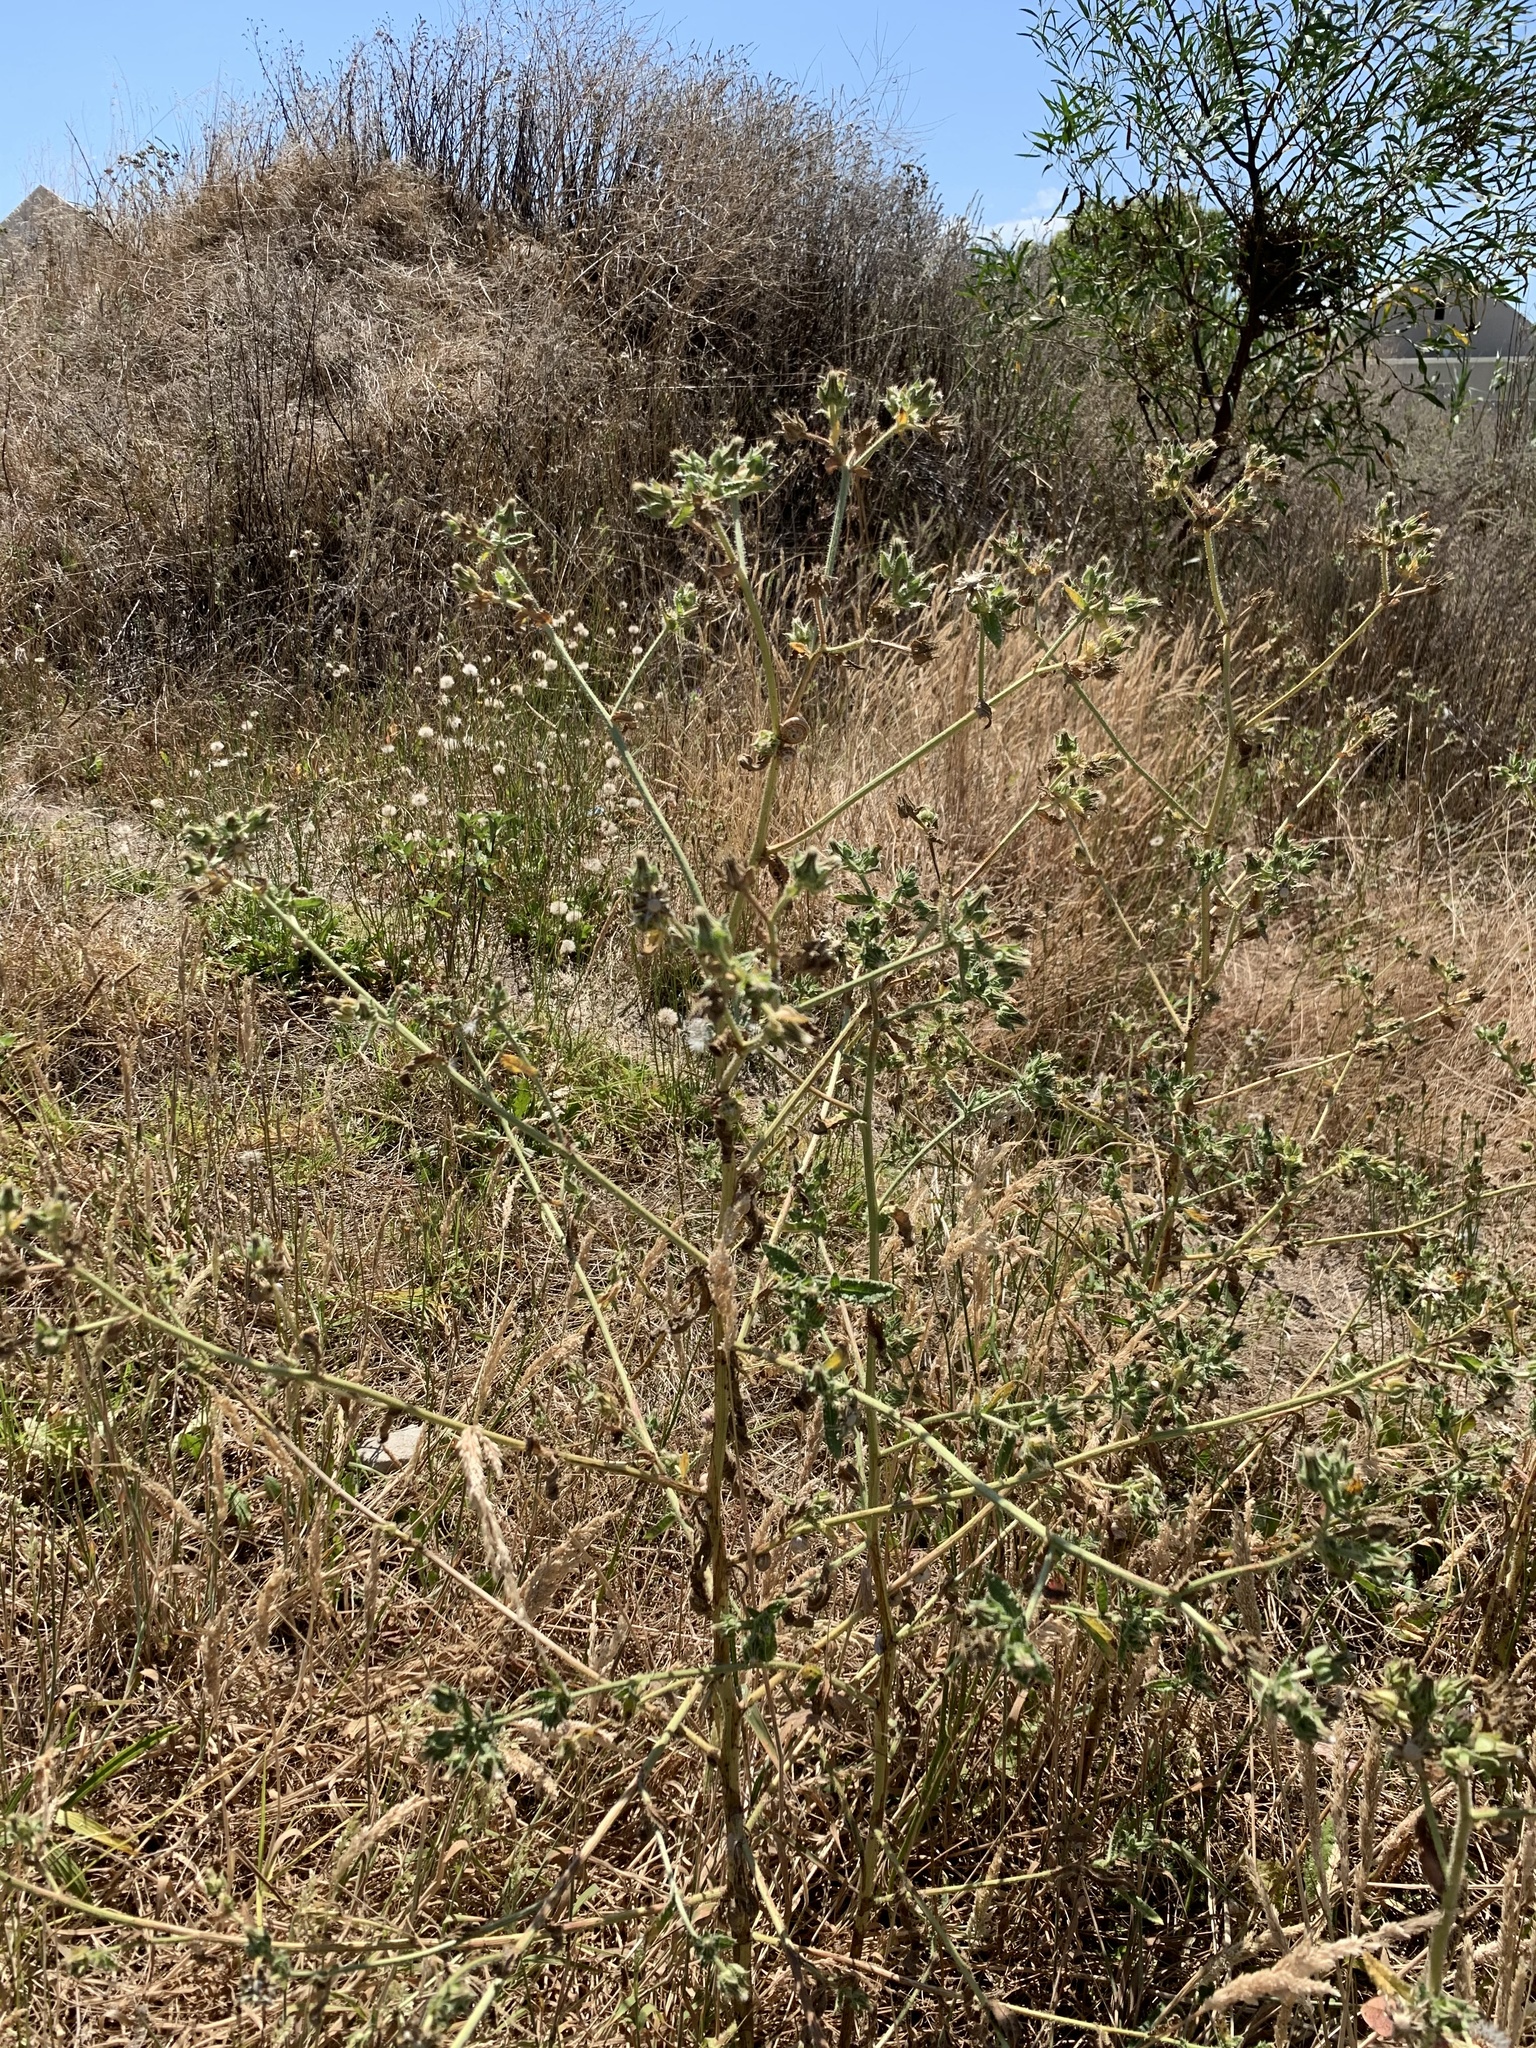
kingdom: Plantae
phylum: Tracheophyta
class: Magnoliopsida
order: Asterales
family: Asteraceae
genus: Helminthotheca
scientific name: Helminthotheca echioides
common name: Ox-tongue
